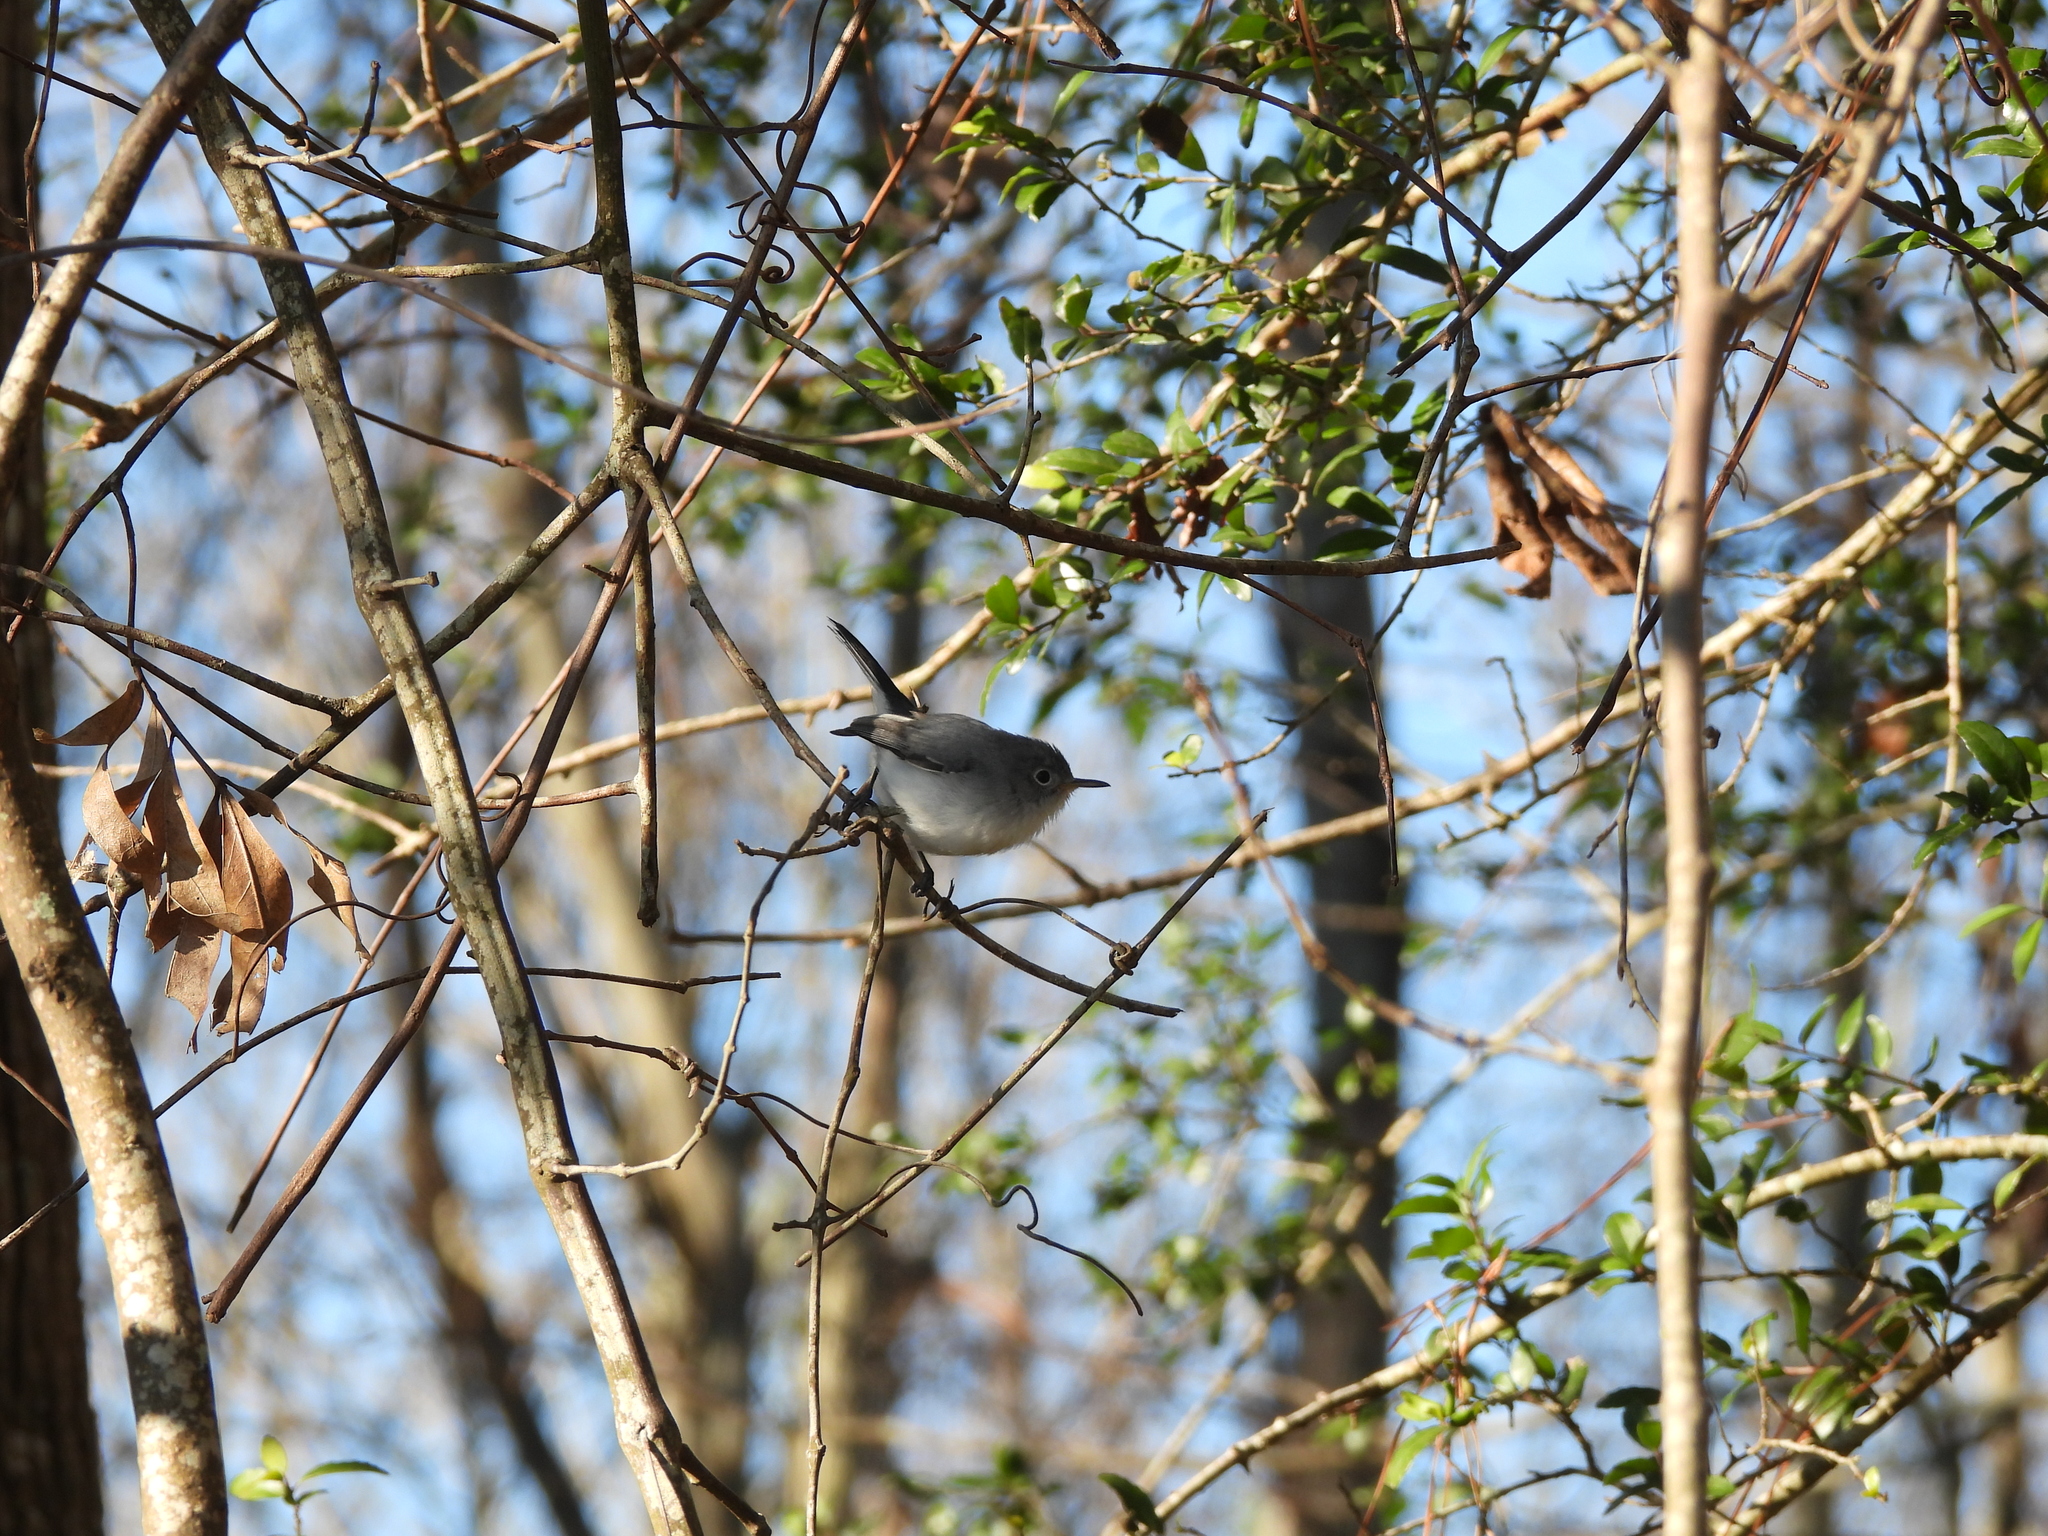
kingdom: Animalia
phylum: Chordata
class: Aves
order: Passeriformes
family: Polioptilidae
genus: Polioptila
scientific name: Polioptila caerulea
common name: Blue-gray gnatcatcher
